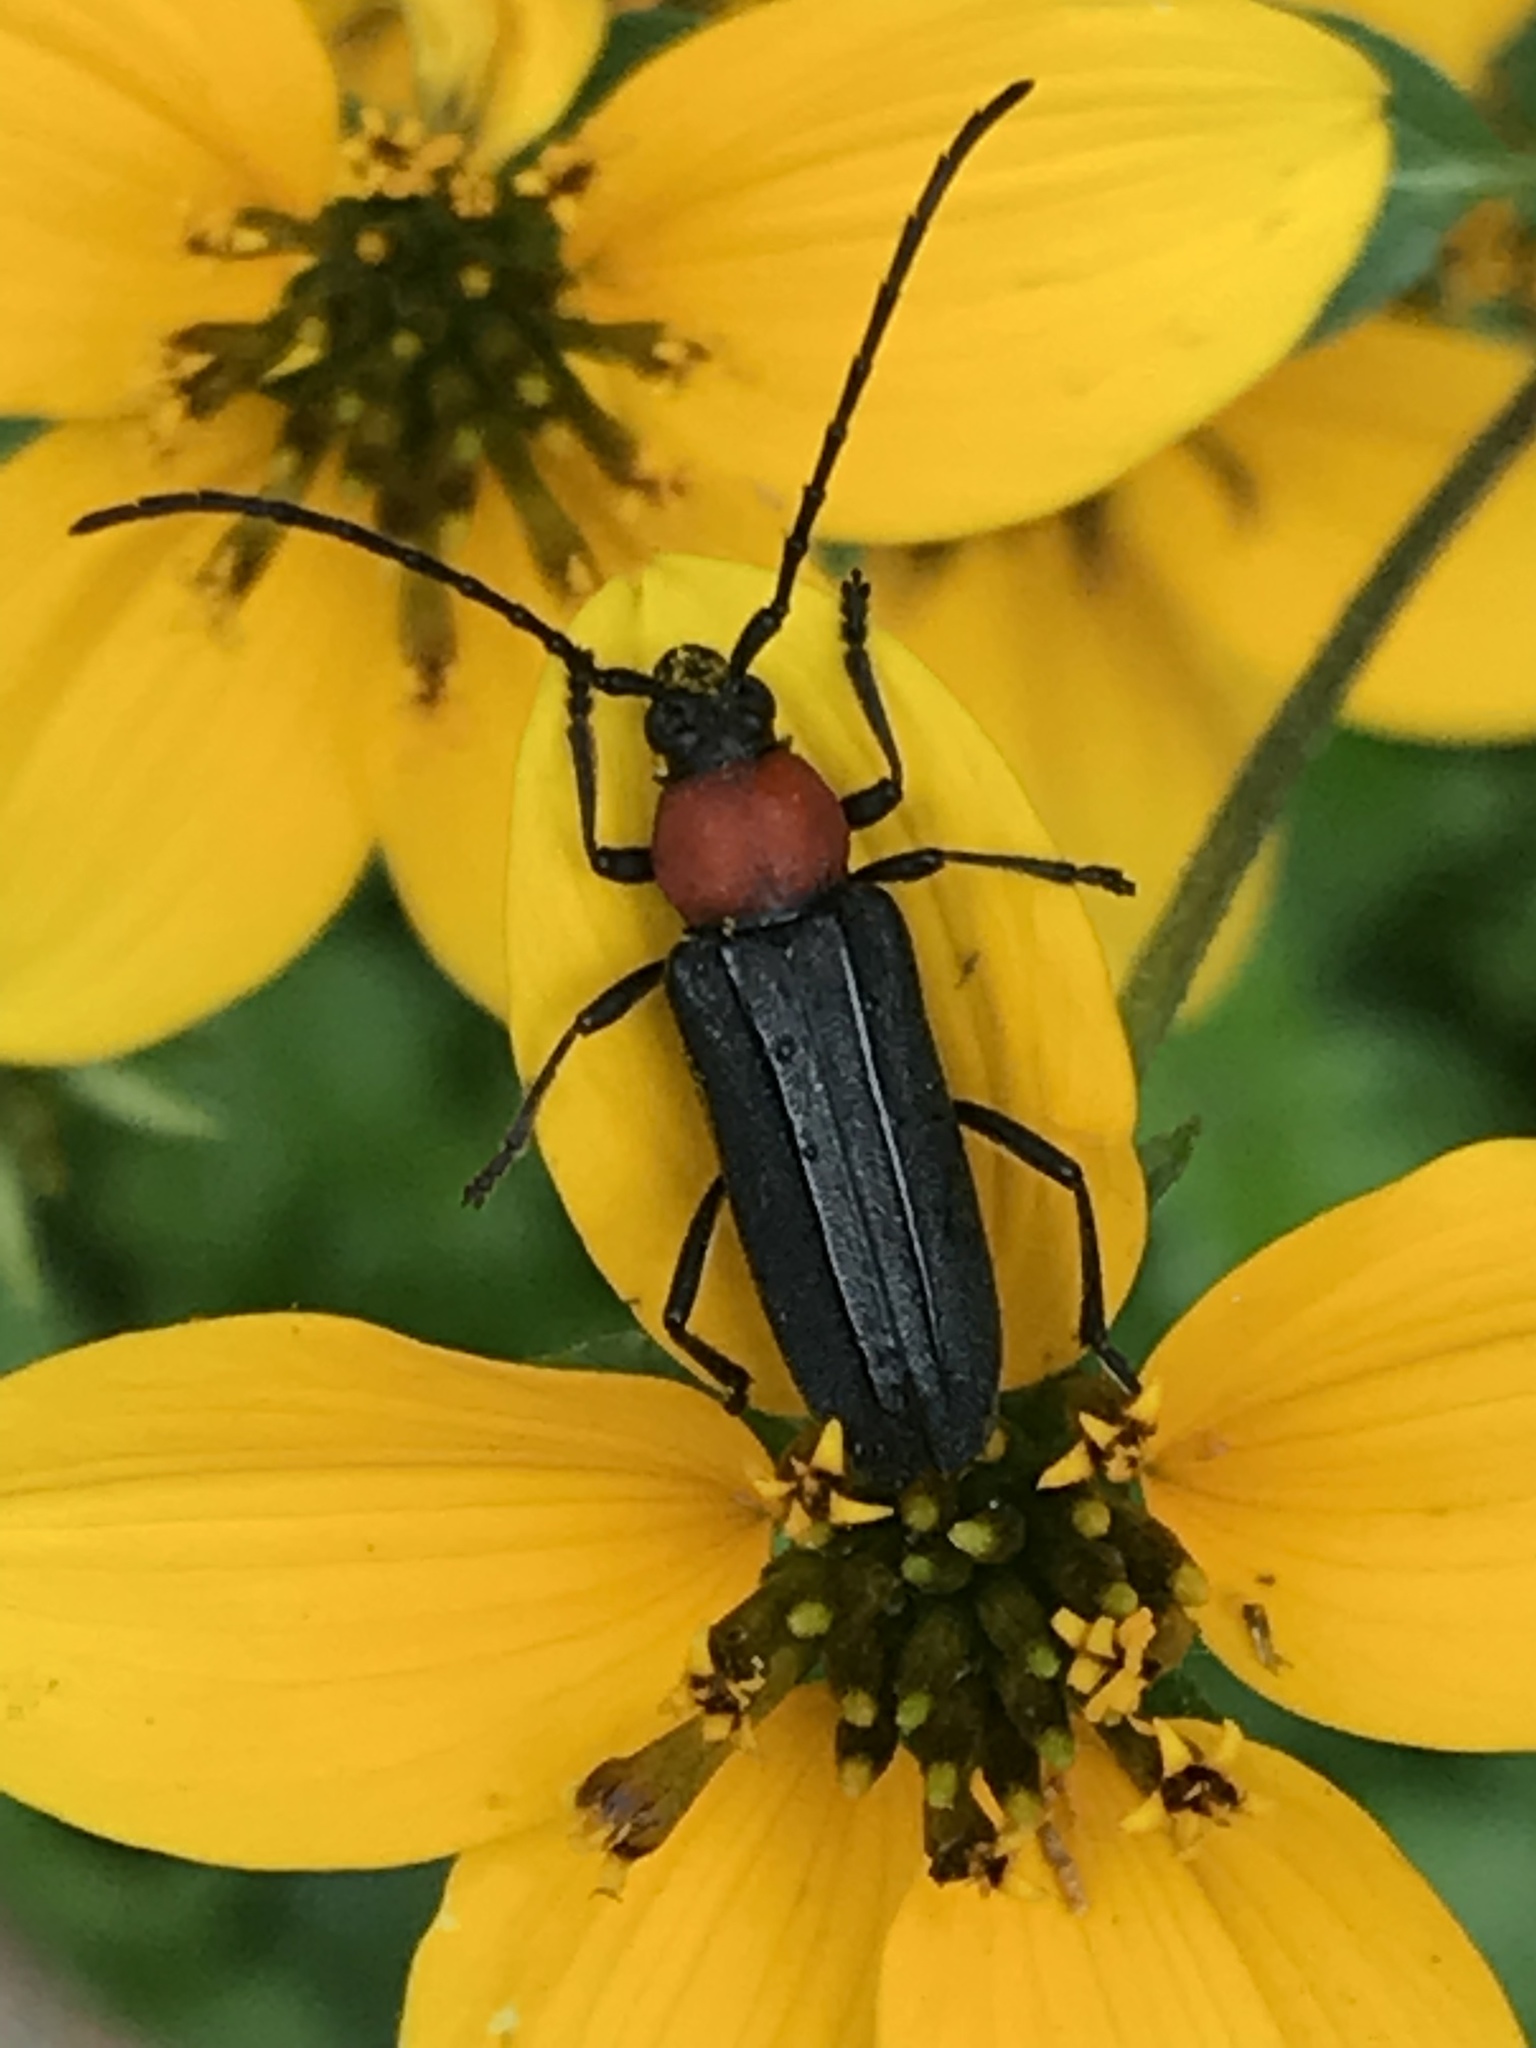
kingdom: Animalia
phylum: Arthropoda
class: Insecta
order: Coleoptera
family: Cerambycidae
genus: Mannophorus
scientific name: Mannophorus laetus
